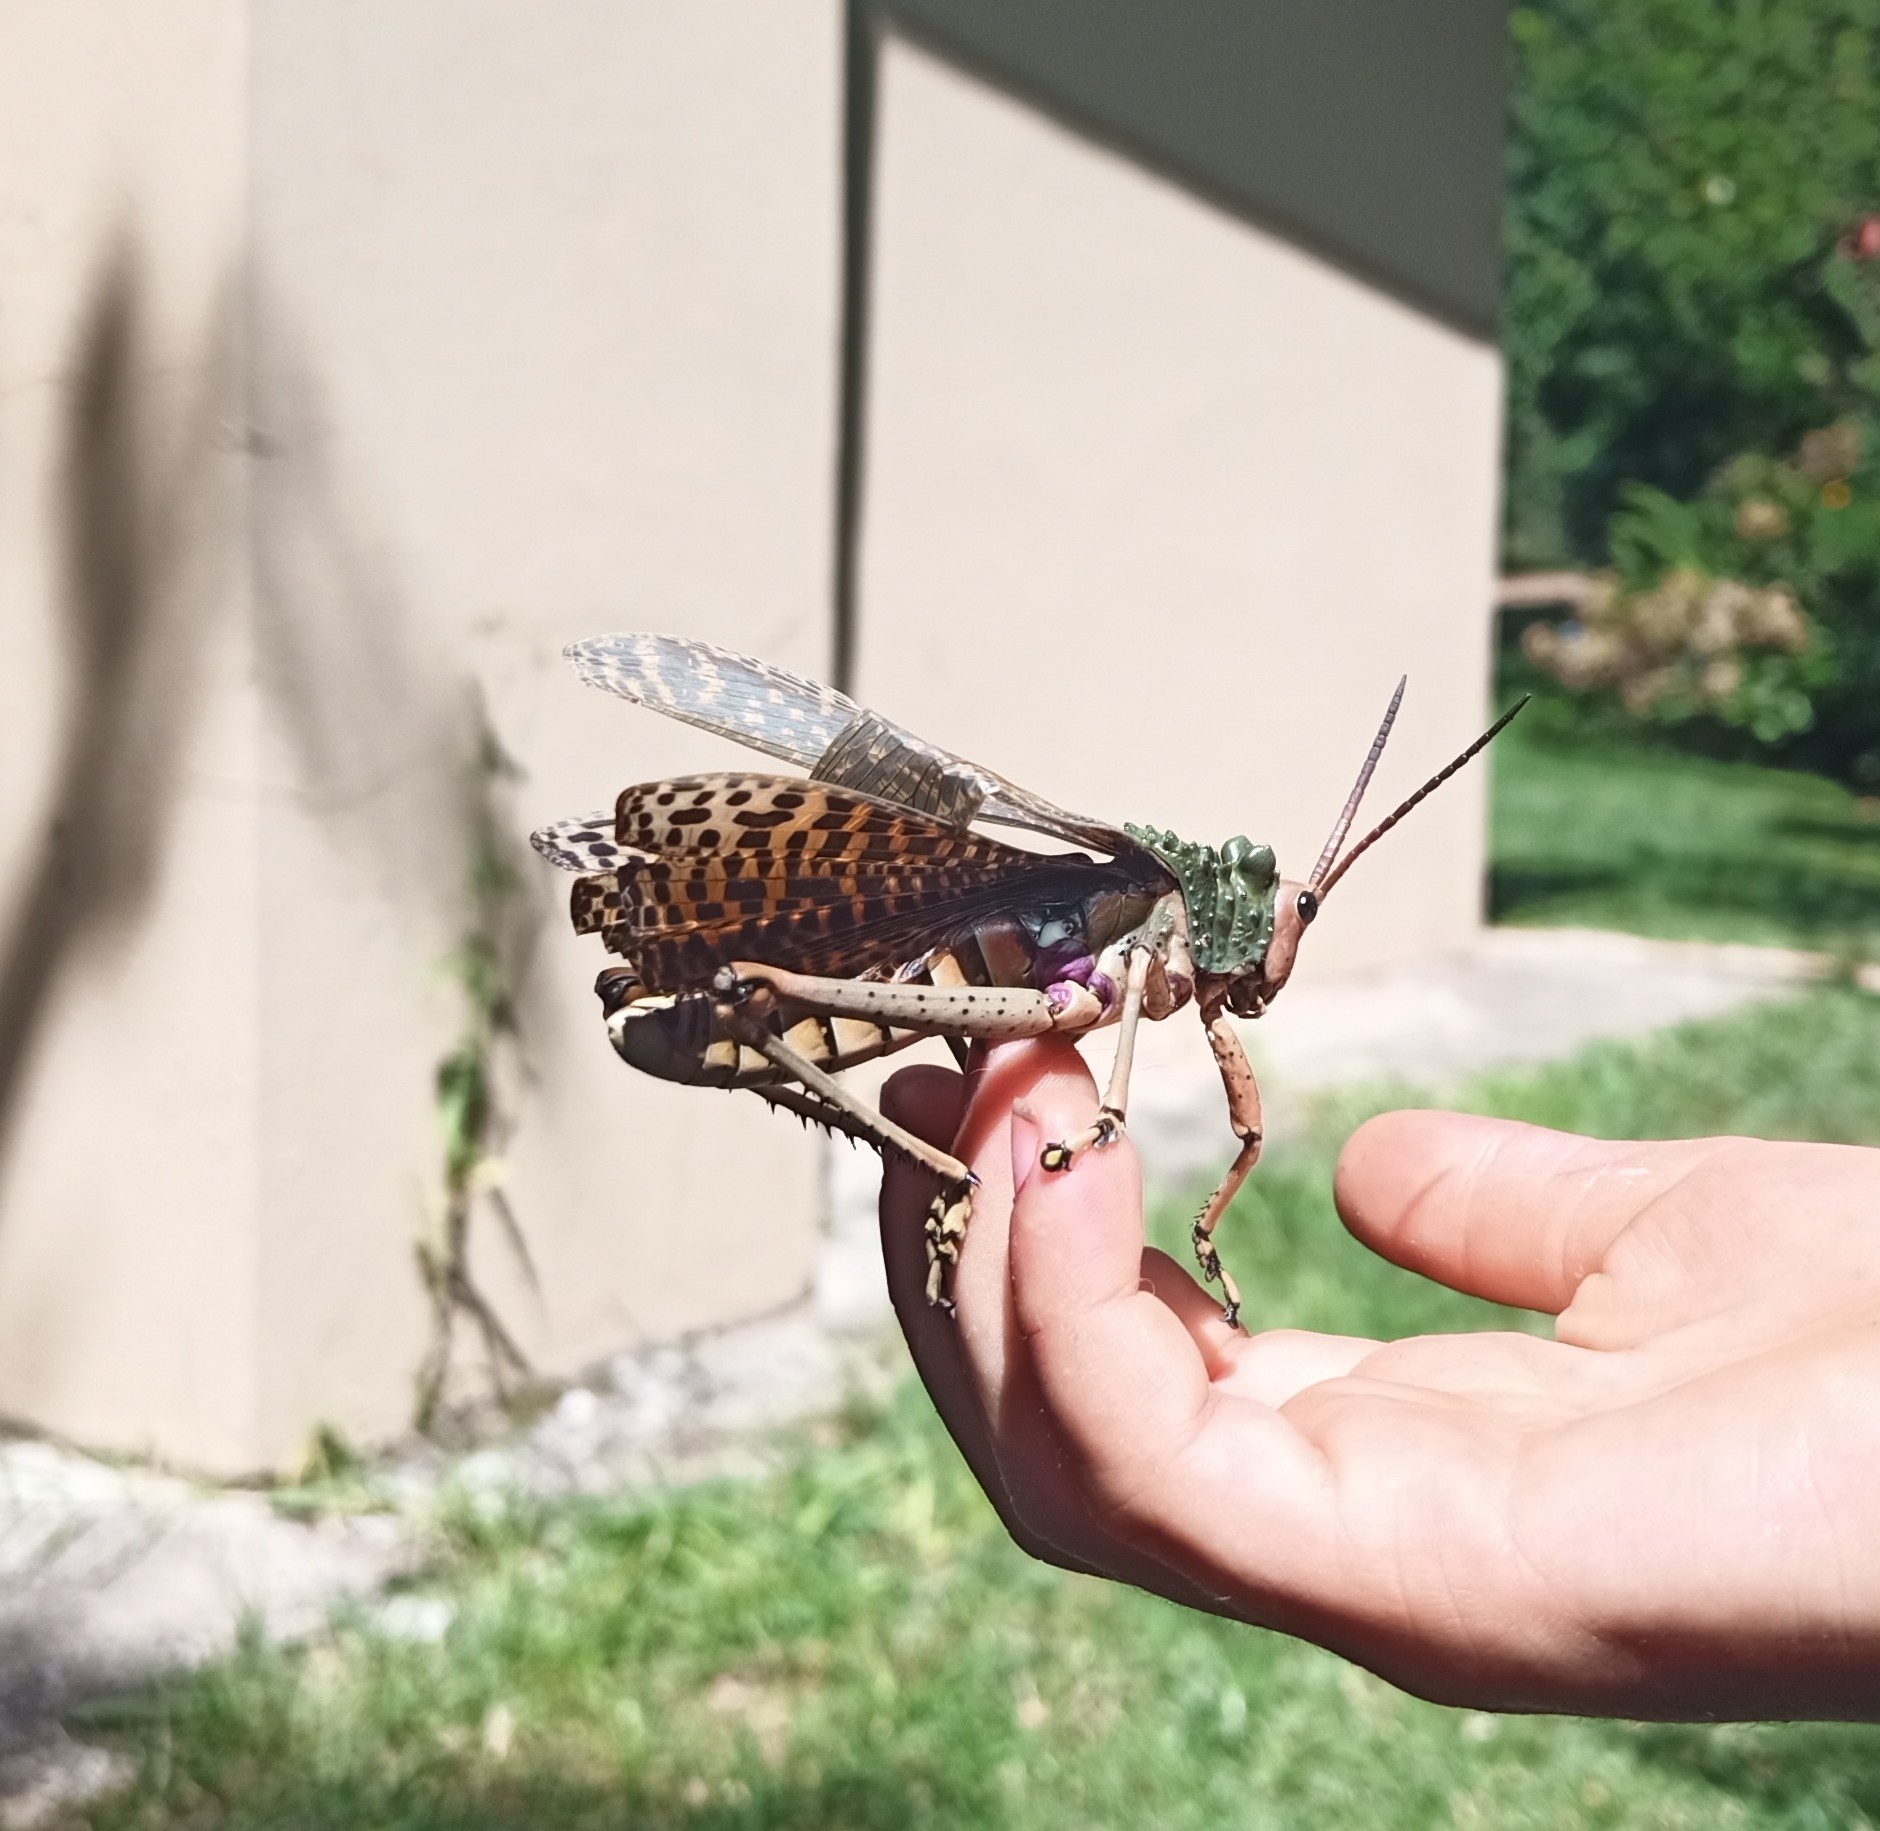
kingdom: Animalia
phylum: Arthropoda
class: Insecta
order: Orthoptera
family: Pyrgomorphidae
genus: Phymateus
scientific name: Phymateus leprosus
